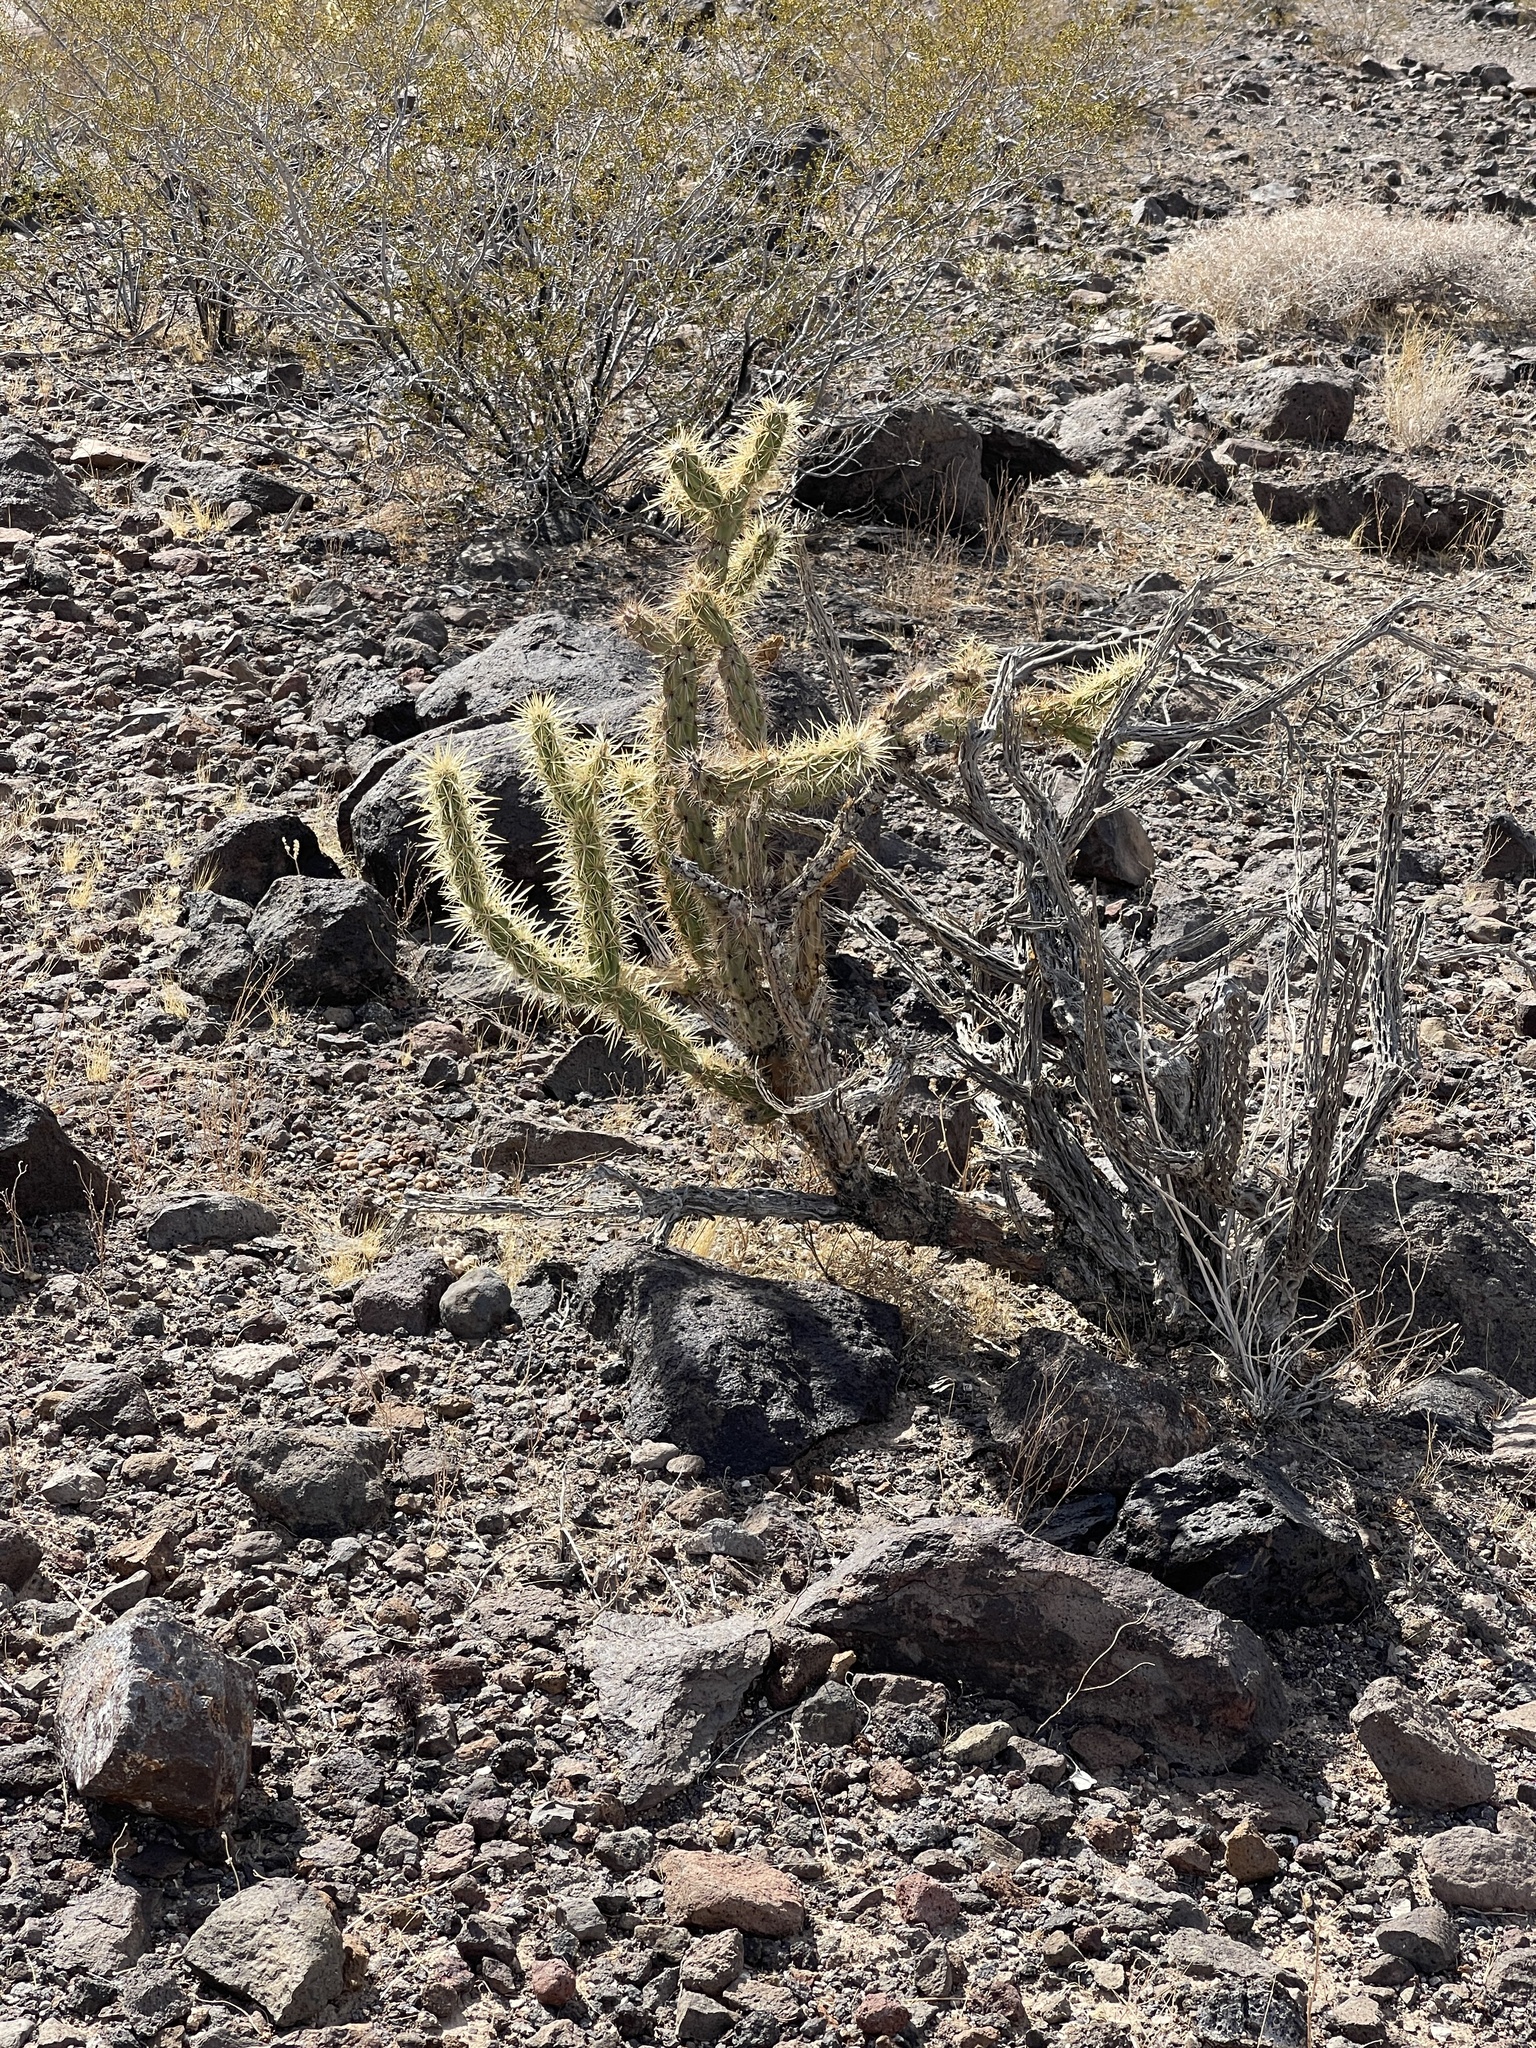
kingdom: Plantae
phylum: Tracheophyta
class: Magnoliopsida
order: Caryophyllales
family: Cactaceae
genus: Cylindropuntia
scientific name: Cylindropuntia acanthocarpa
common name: Buckhorn cholla
